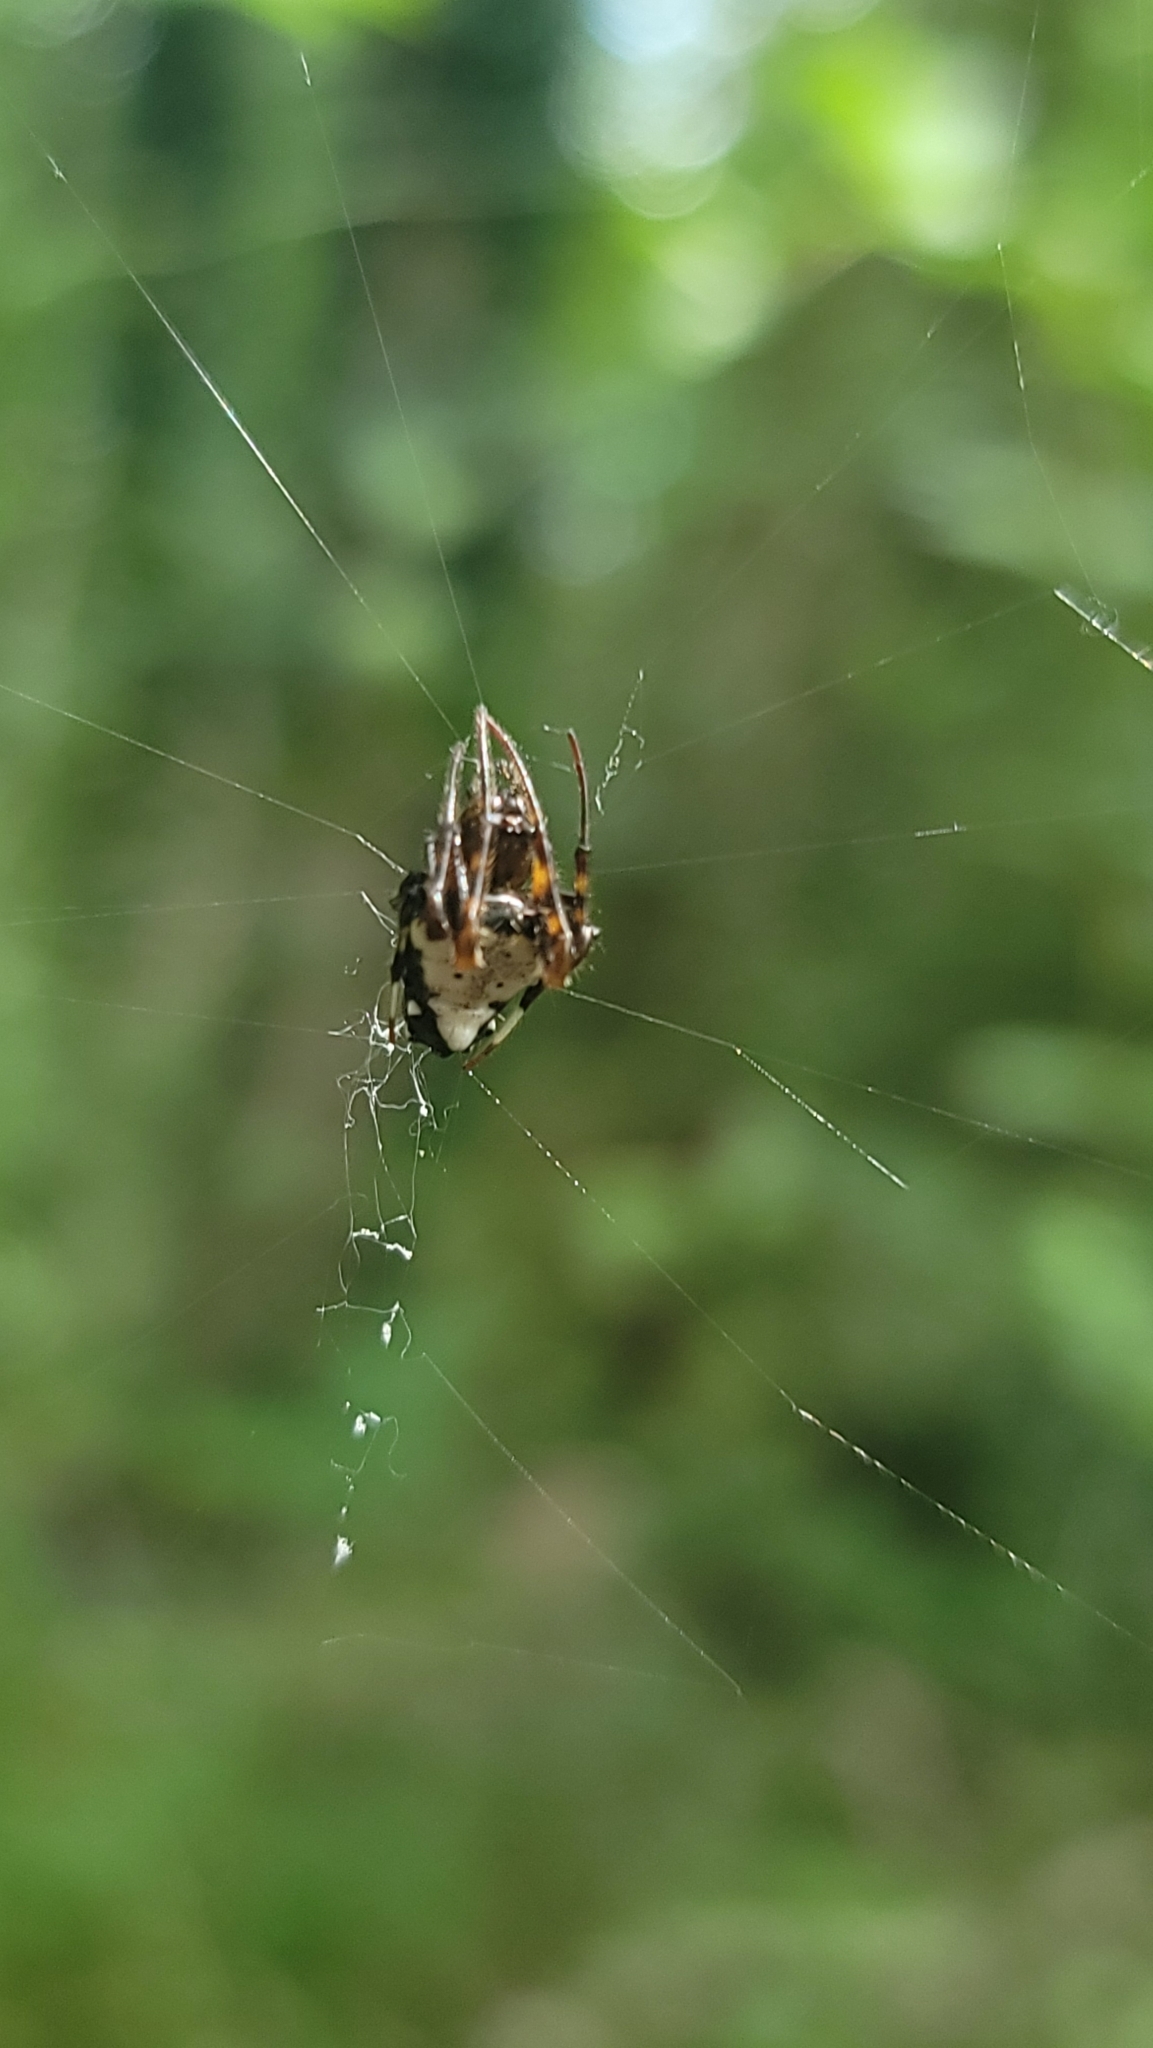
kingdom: Animalia
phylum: Arthropoda
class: Arachnida
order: Araneae
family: Araneidae
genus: Verrucosa
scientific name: Verrucosa arenata
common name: Orb weavers
